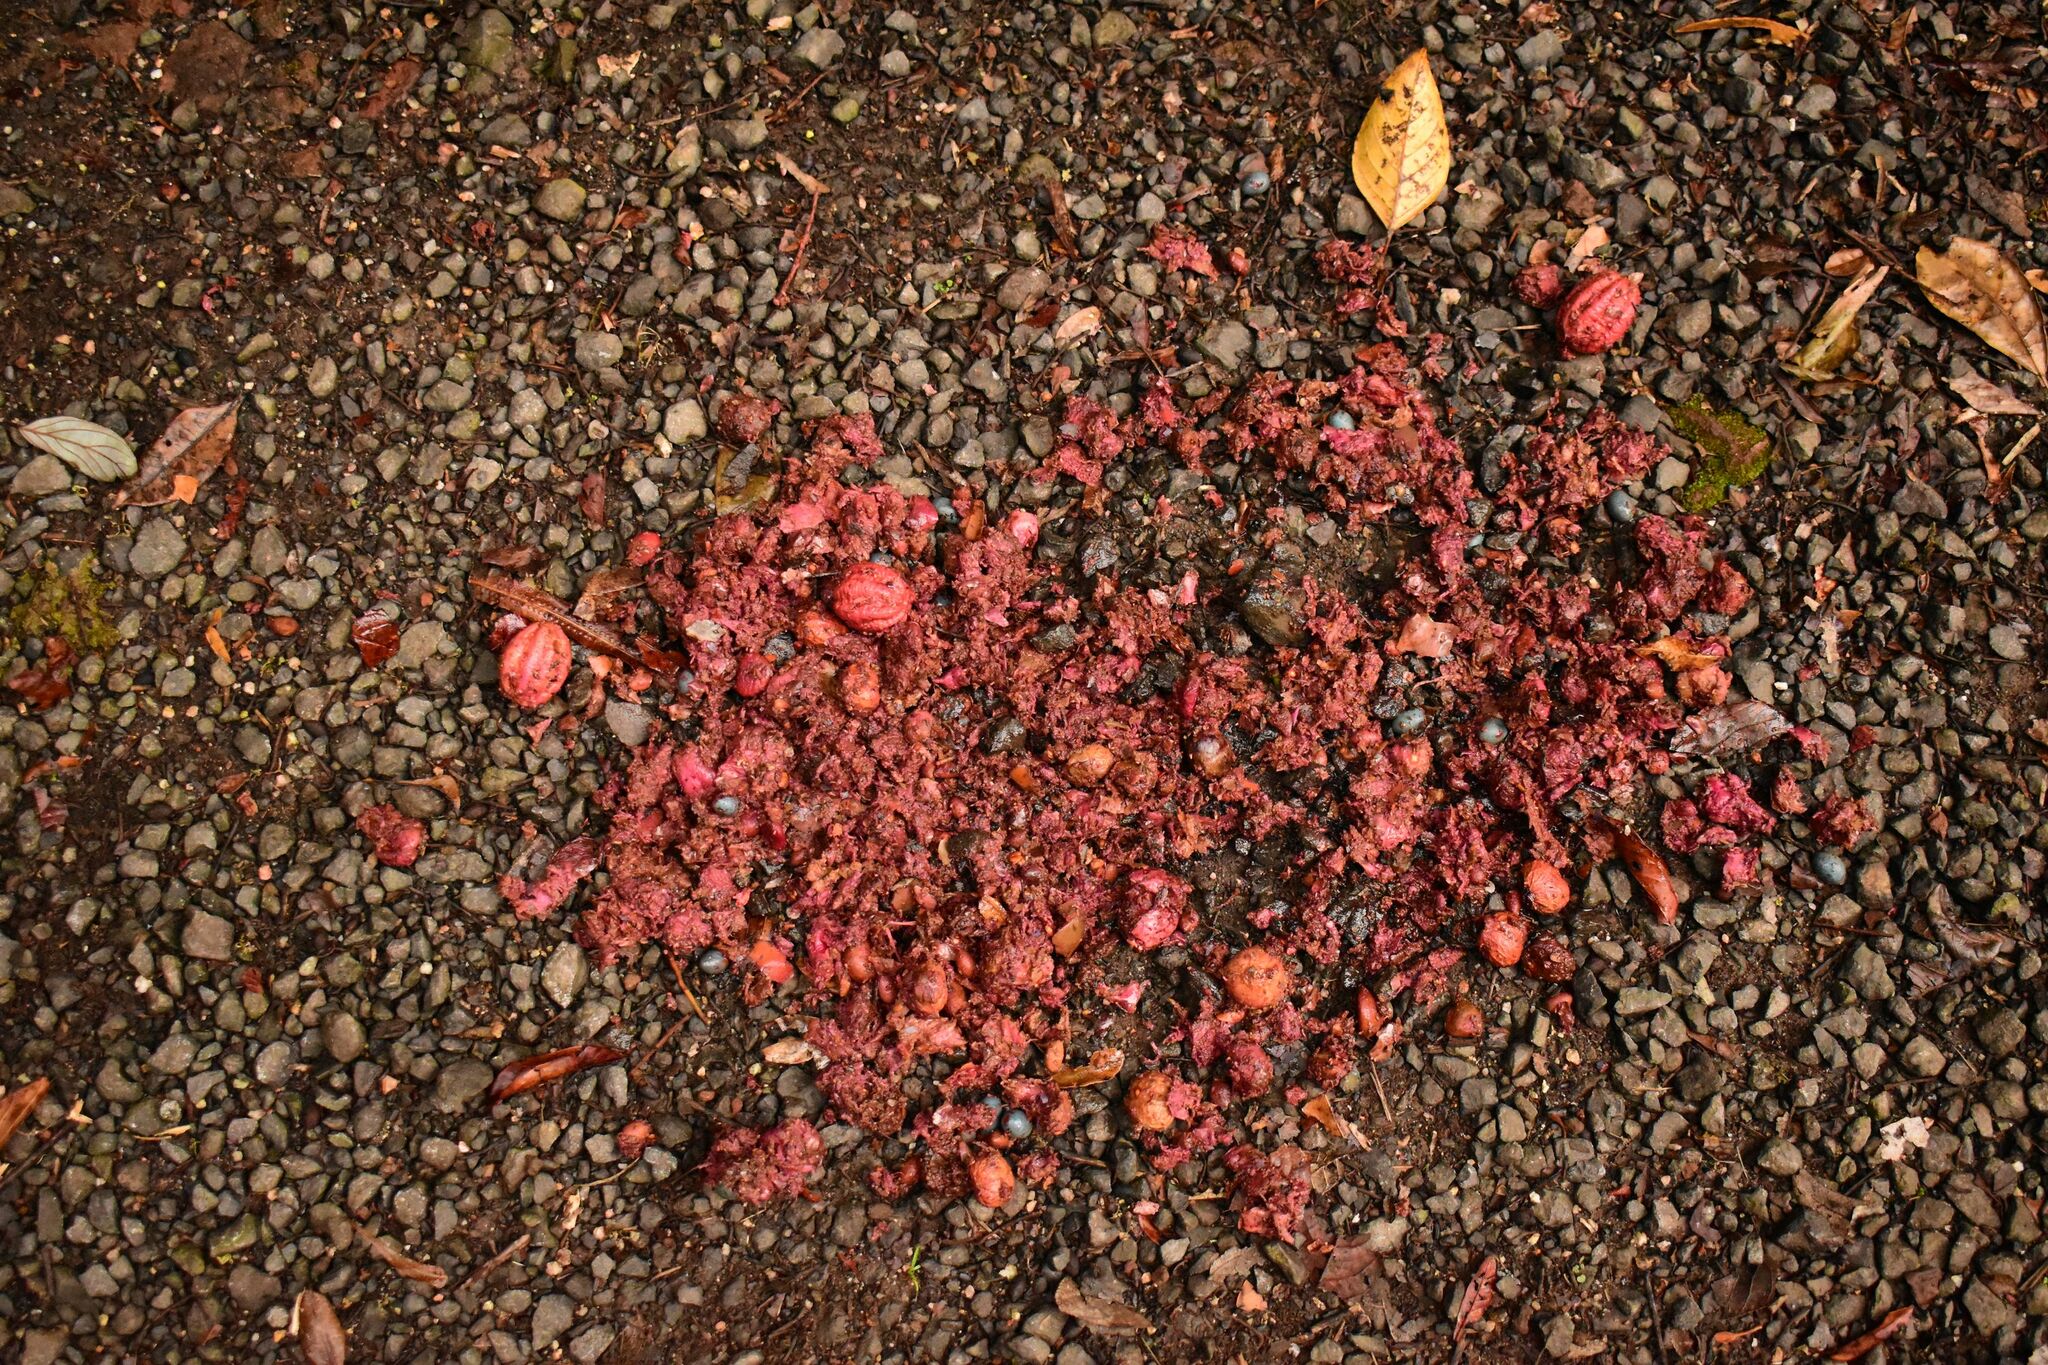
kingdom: Animalia
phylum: Chordata
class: Aves
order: Casuariiformes
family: Casuariidae
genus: Casuarius
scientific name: Casuarius casuarius
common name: Southern cassowary
